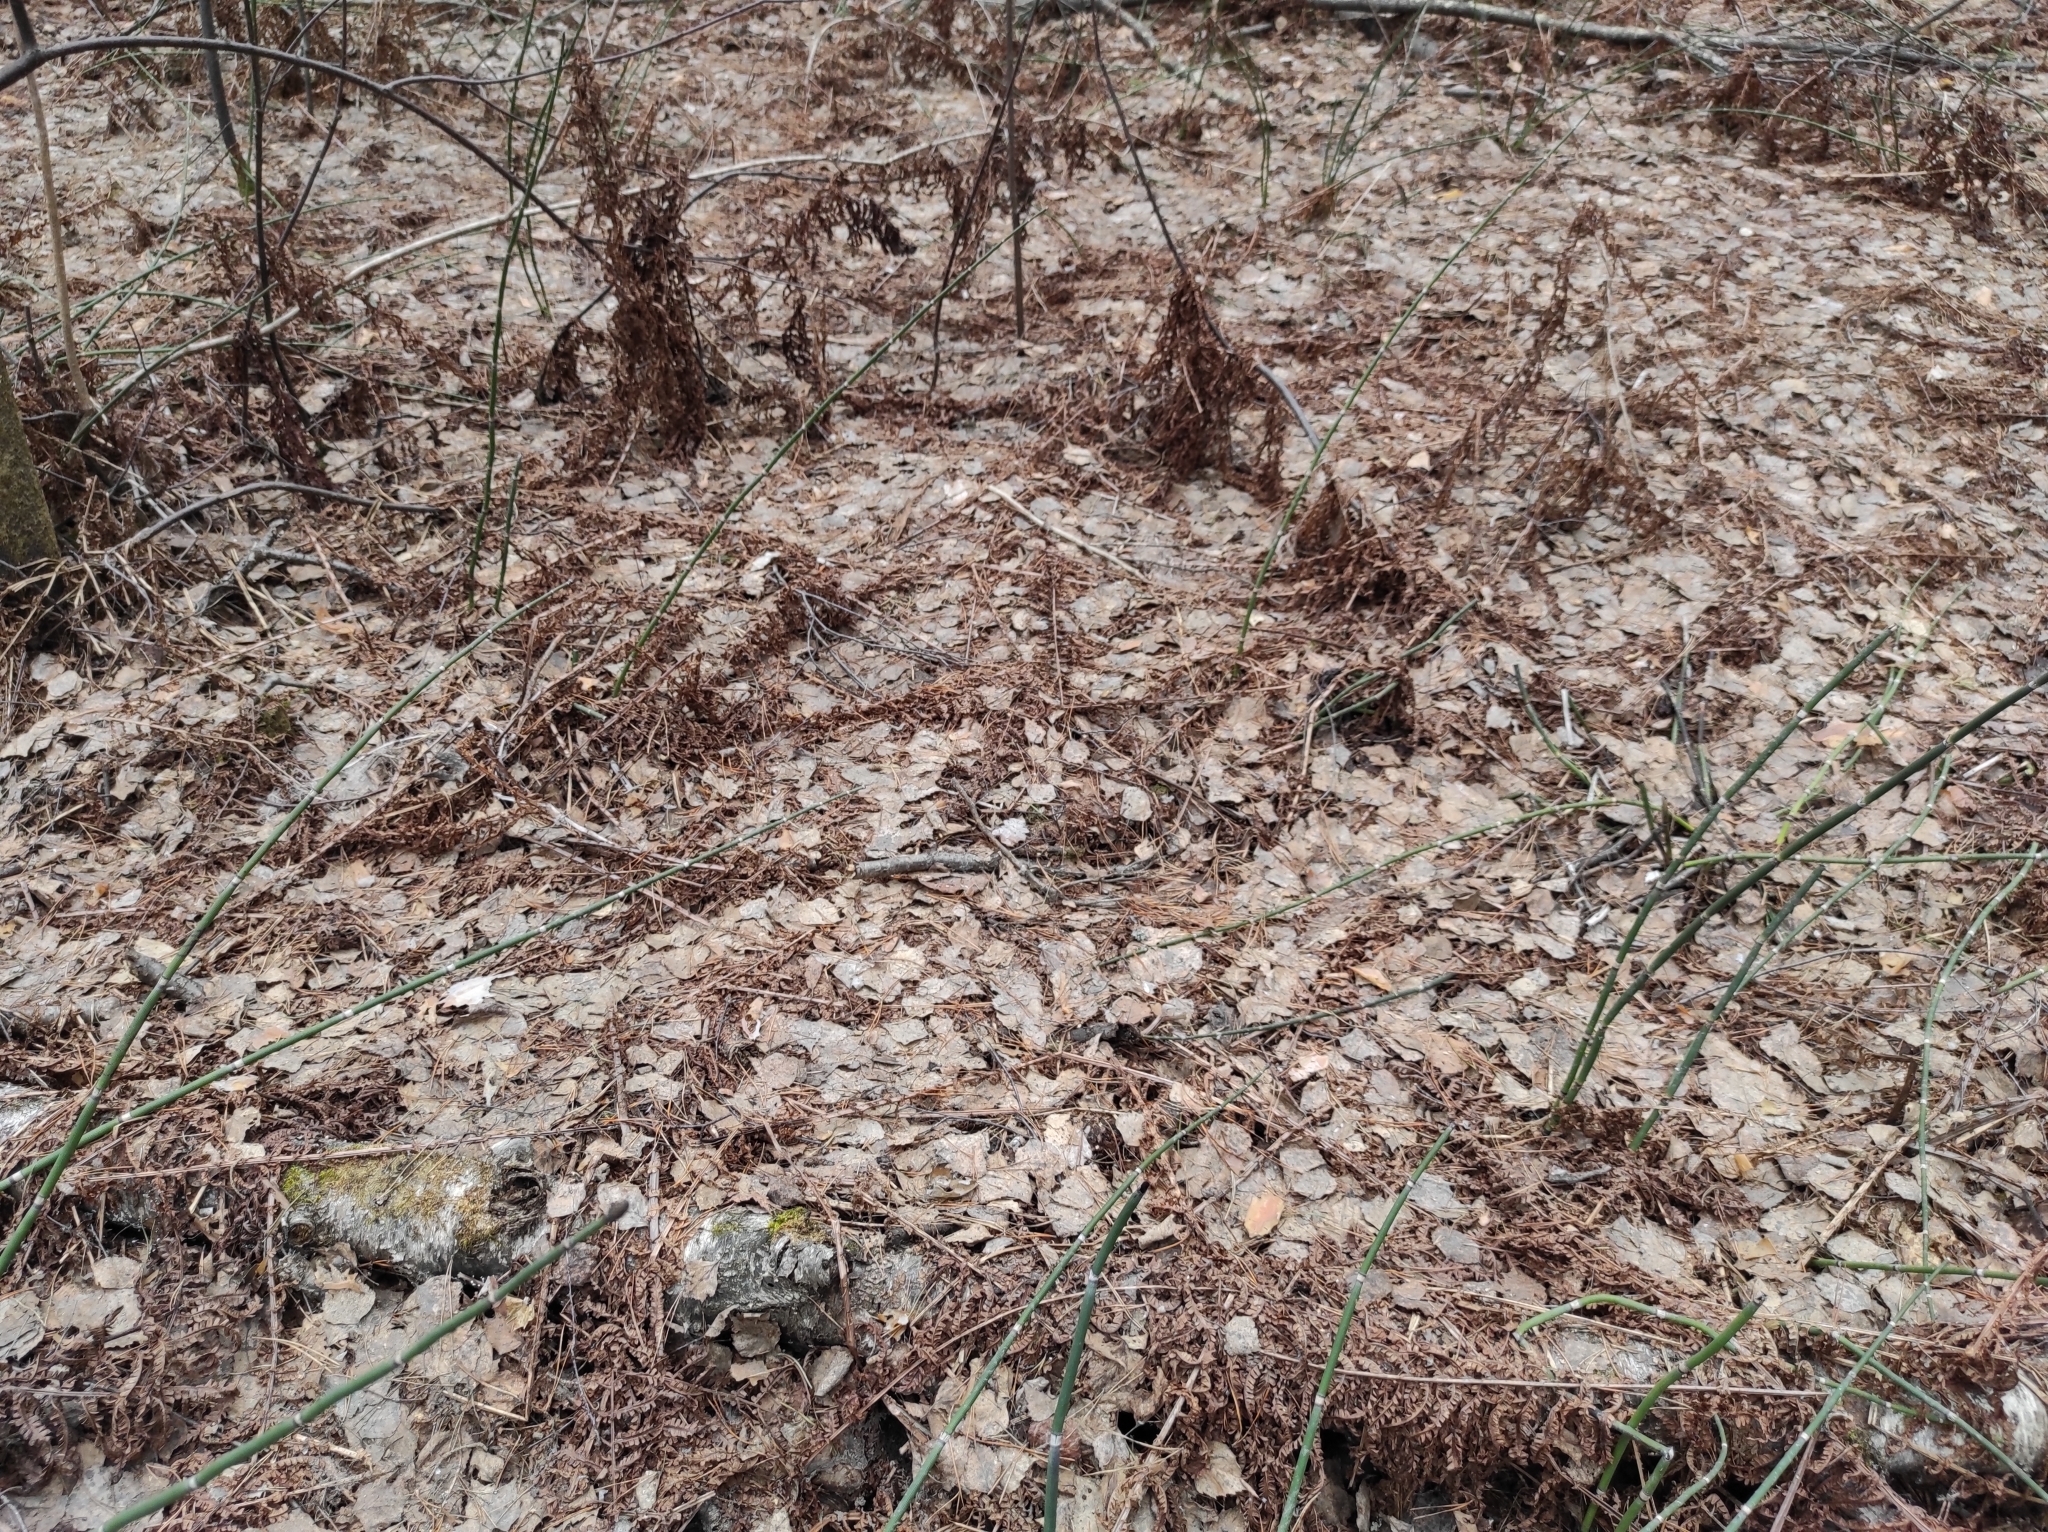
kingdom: Plantae
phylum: Tracheophyta
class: Polypodiopsida
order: Equisetales
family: Equisetaceae
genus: Equisetum
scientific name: Equisetum hyemale
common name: Rough horsetail
